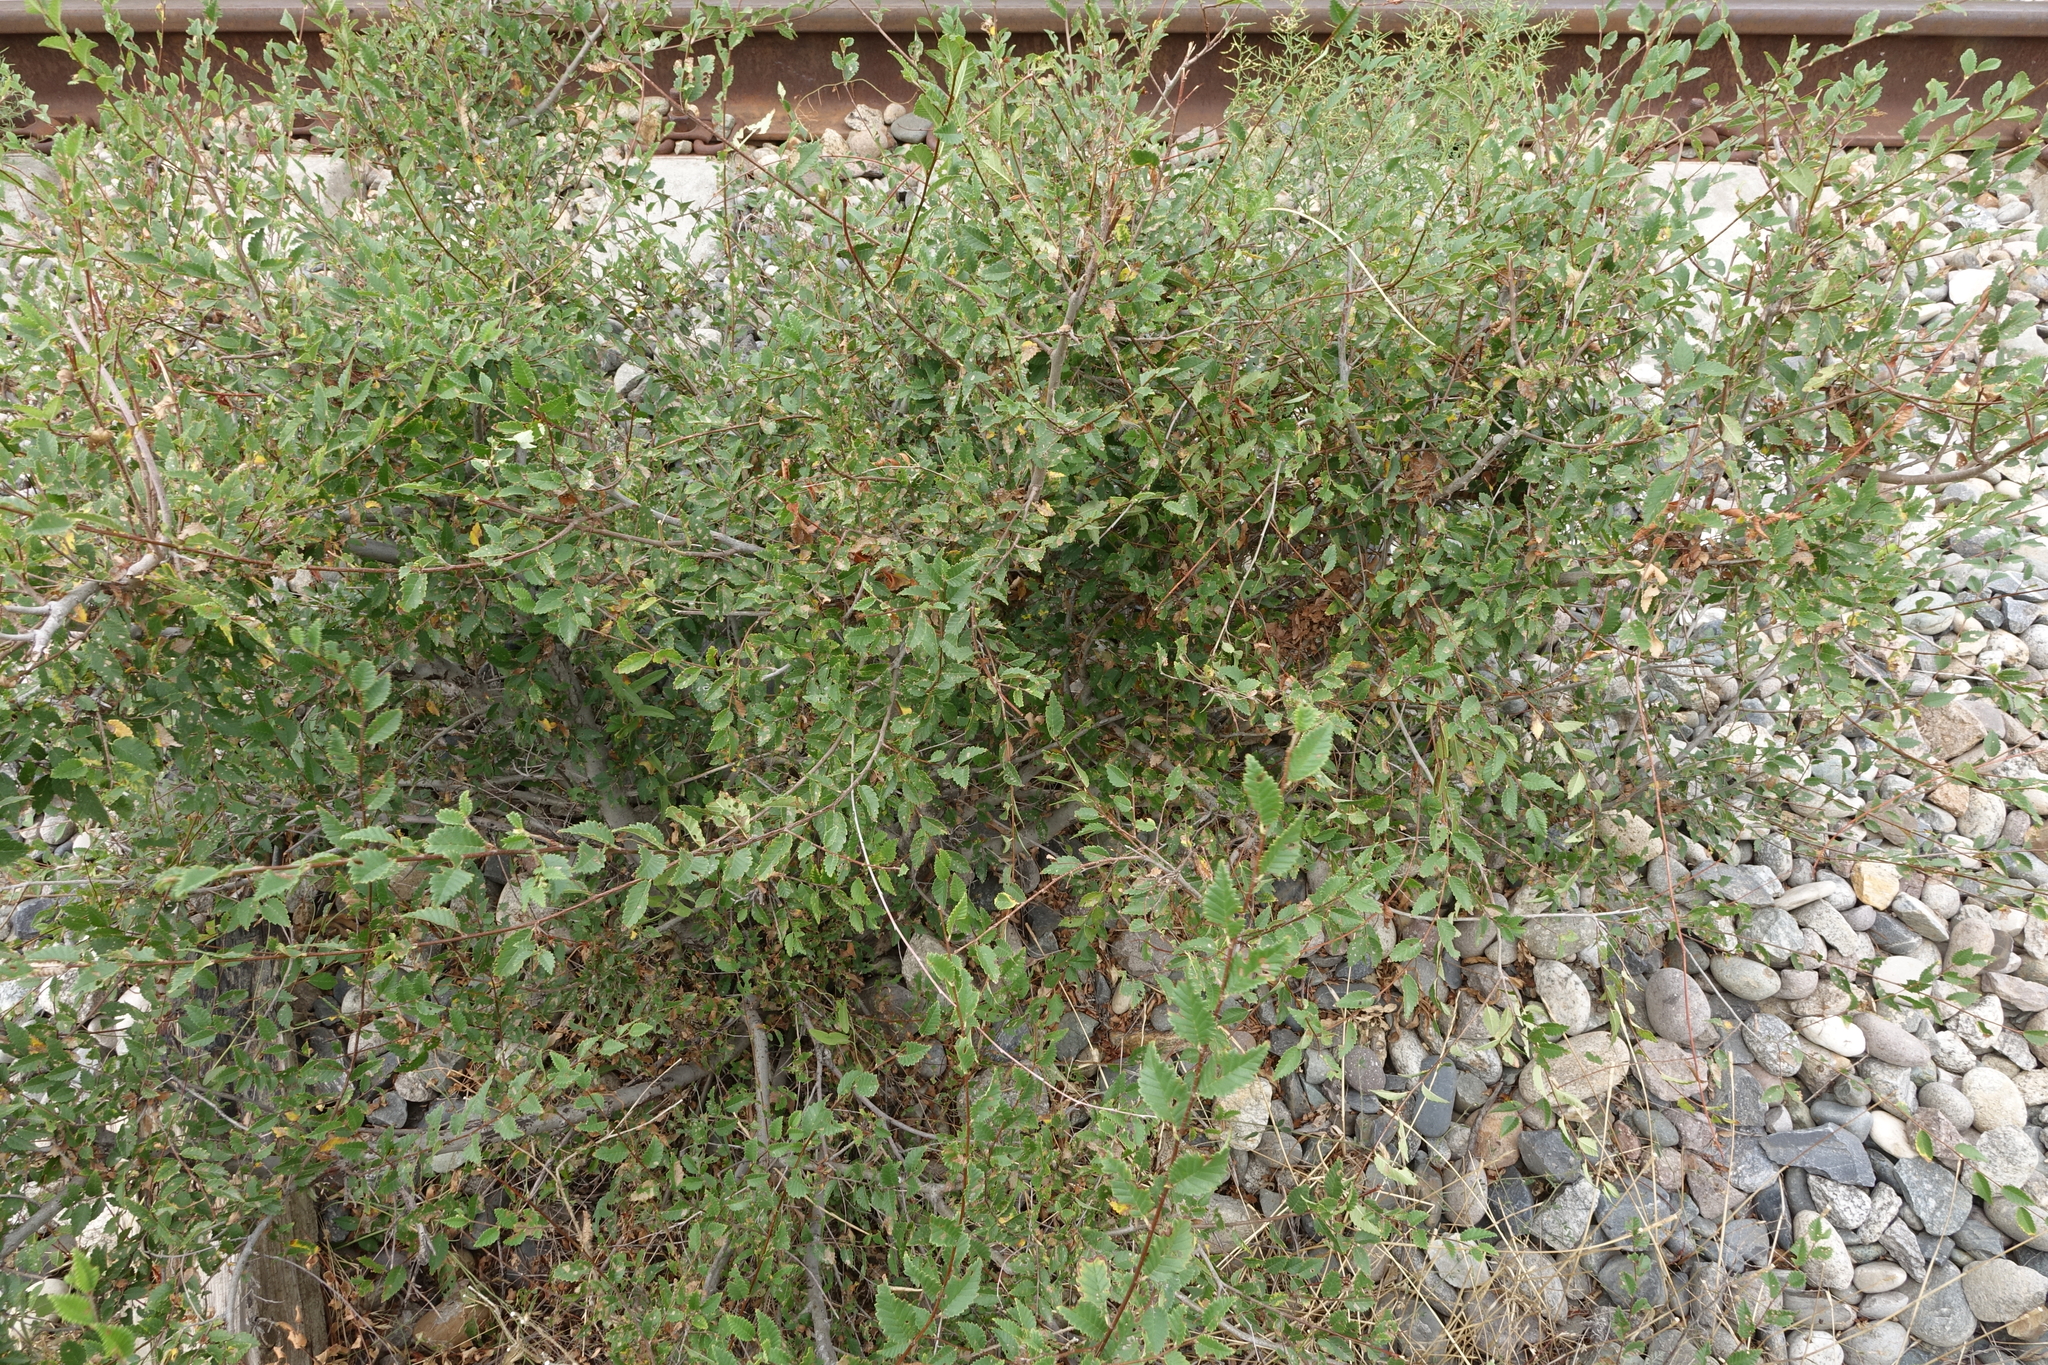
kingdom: Plantae
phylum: Tracheophyta
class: Magnoliopsida
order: Rosales
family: Ulmaceae
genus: Ulmus
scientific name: Ulmus pumila
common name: Siberian elm
